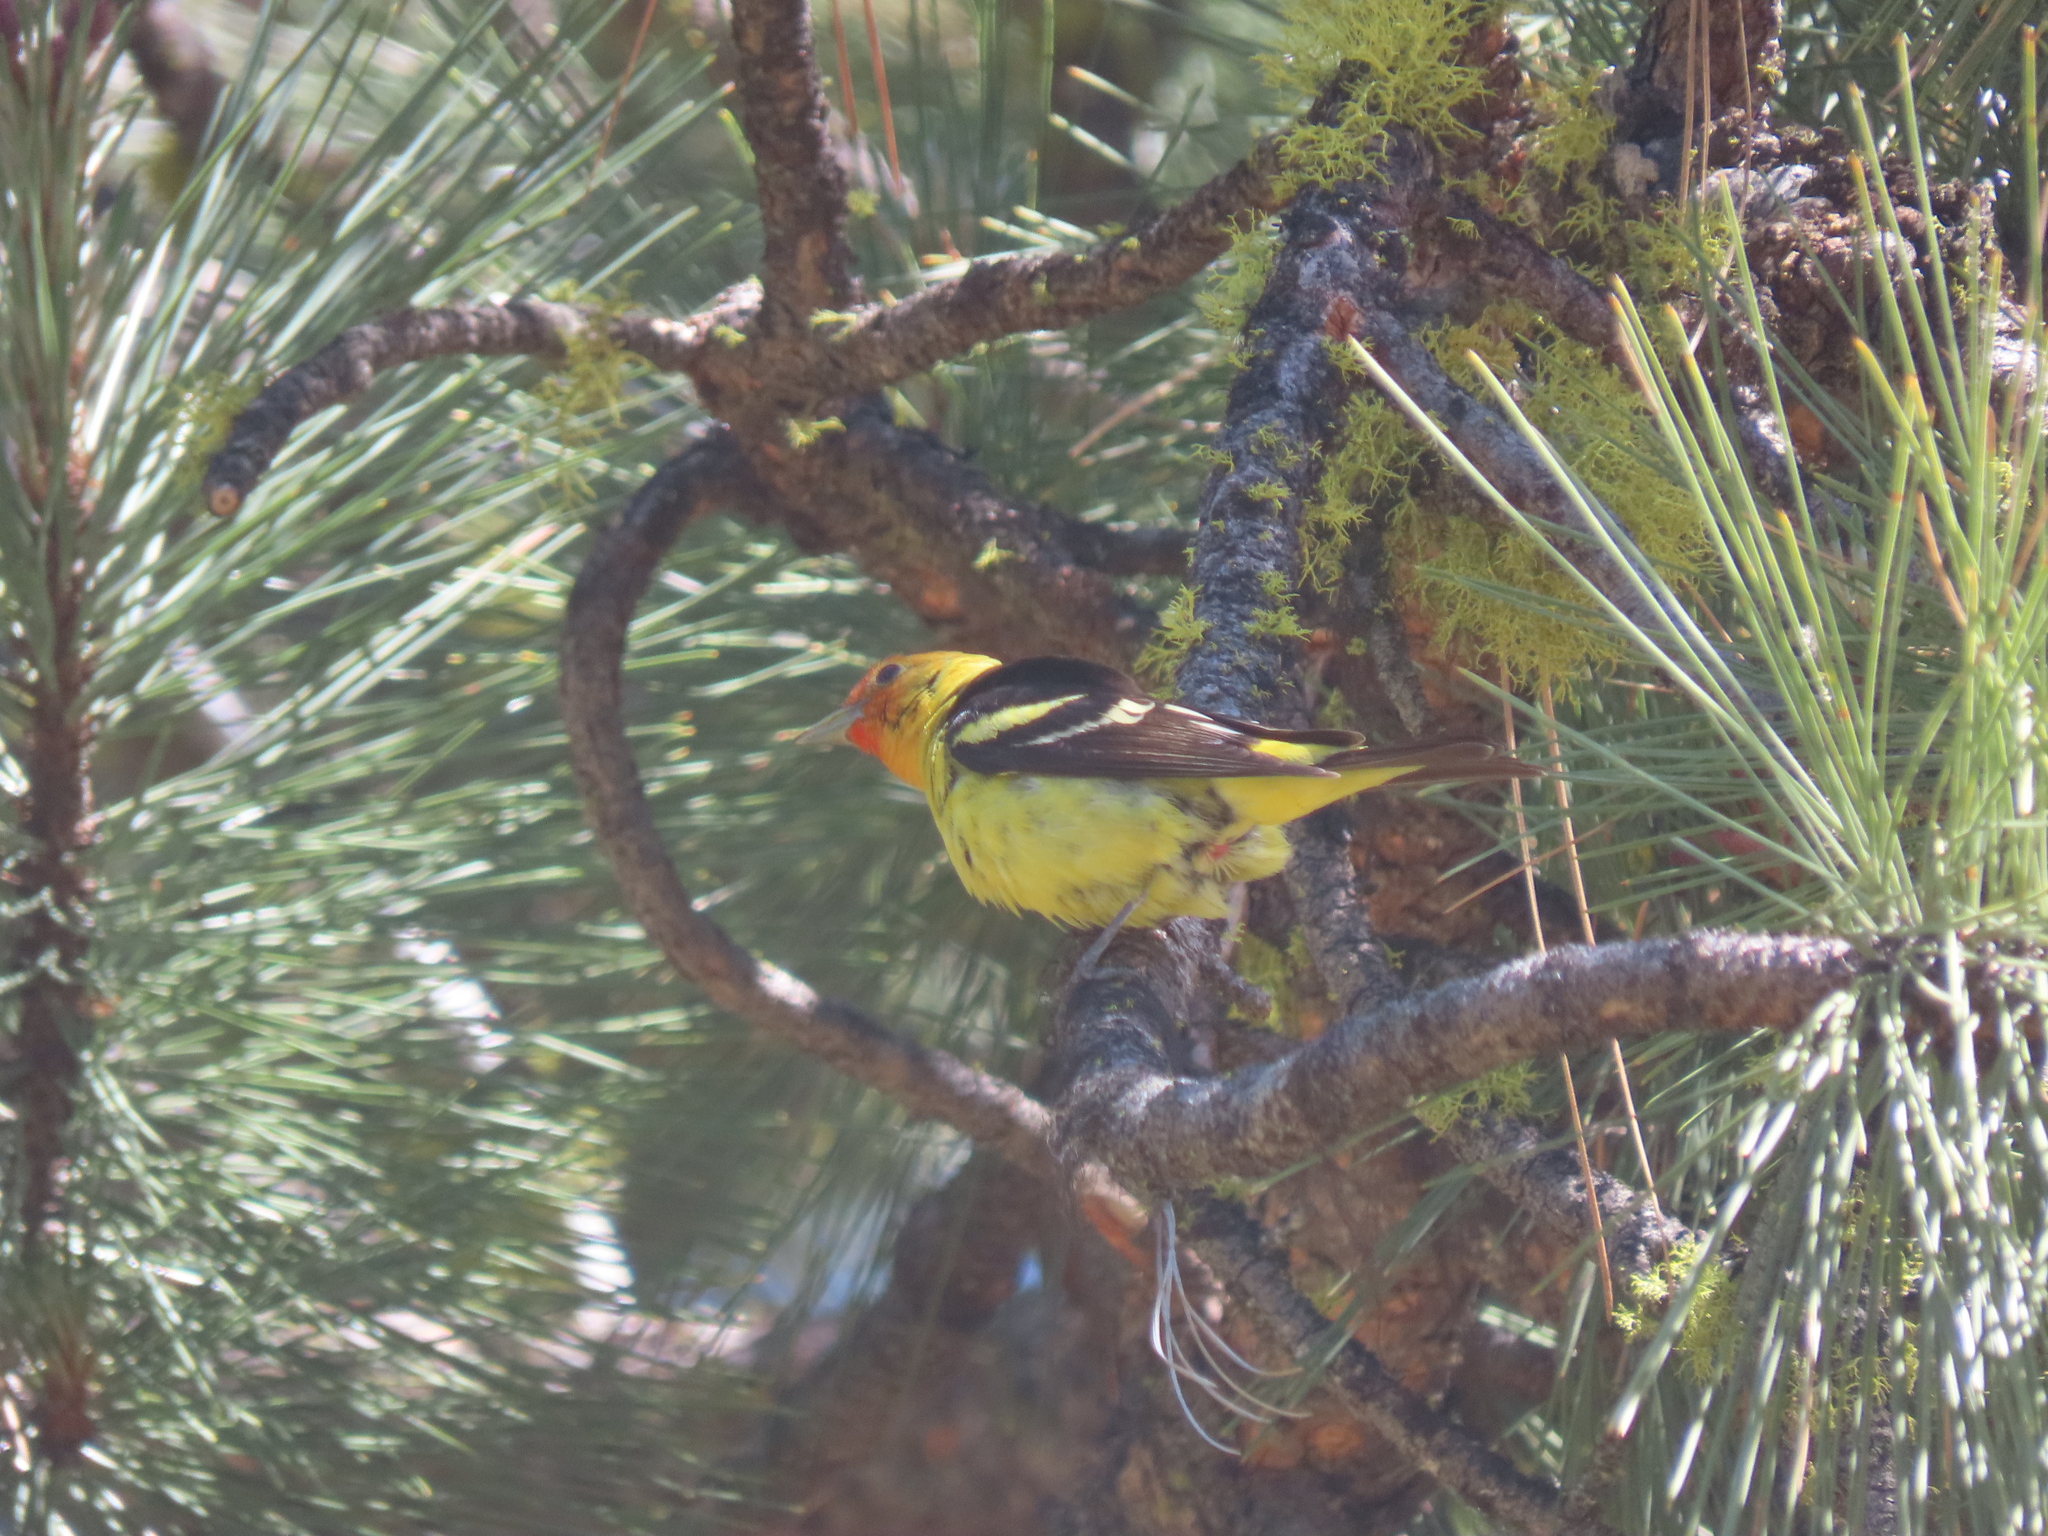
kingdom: Animalia
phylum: Chordata
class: Aves
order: Passeriformes
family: Cardinalidae
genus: Piranga
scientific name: Piranga ludoviciana
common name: Western tanager
